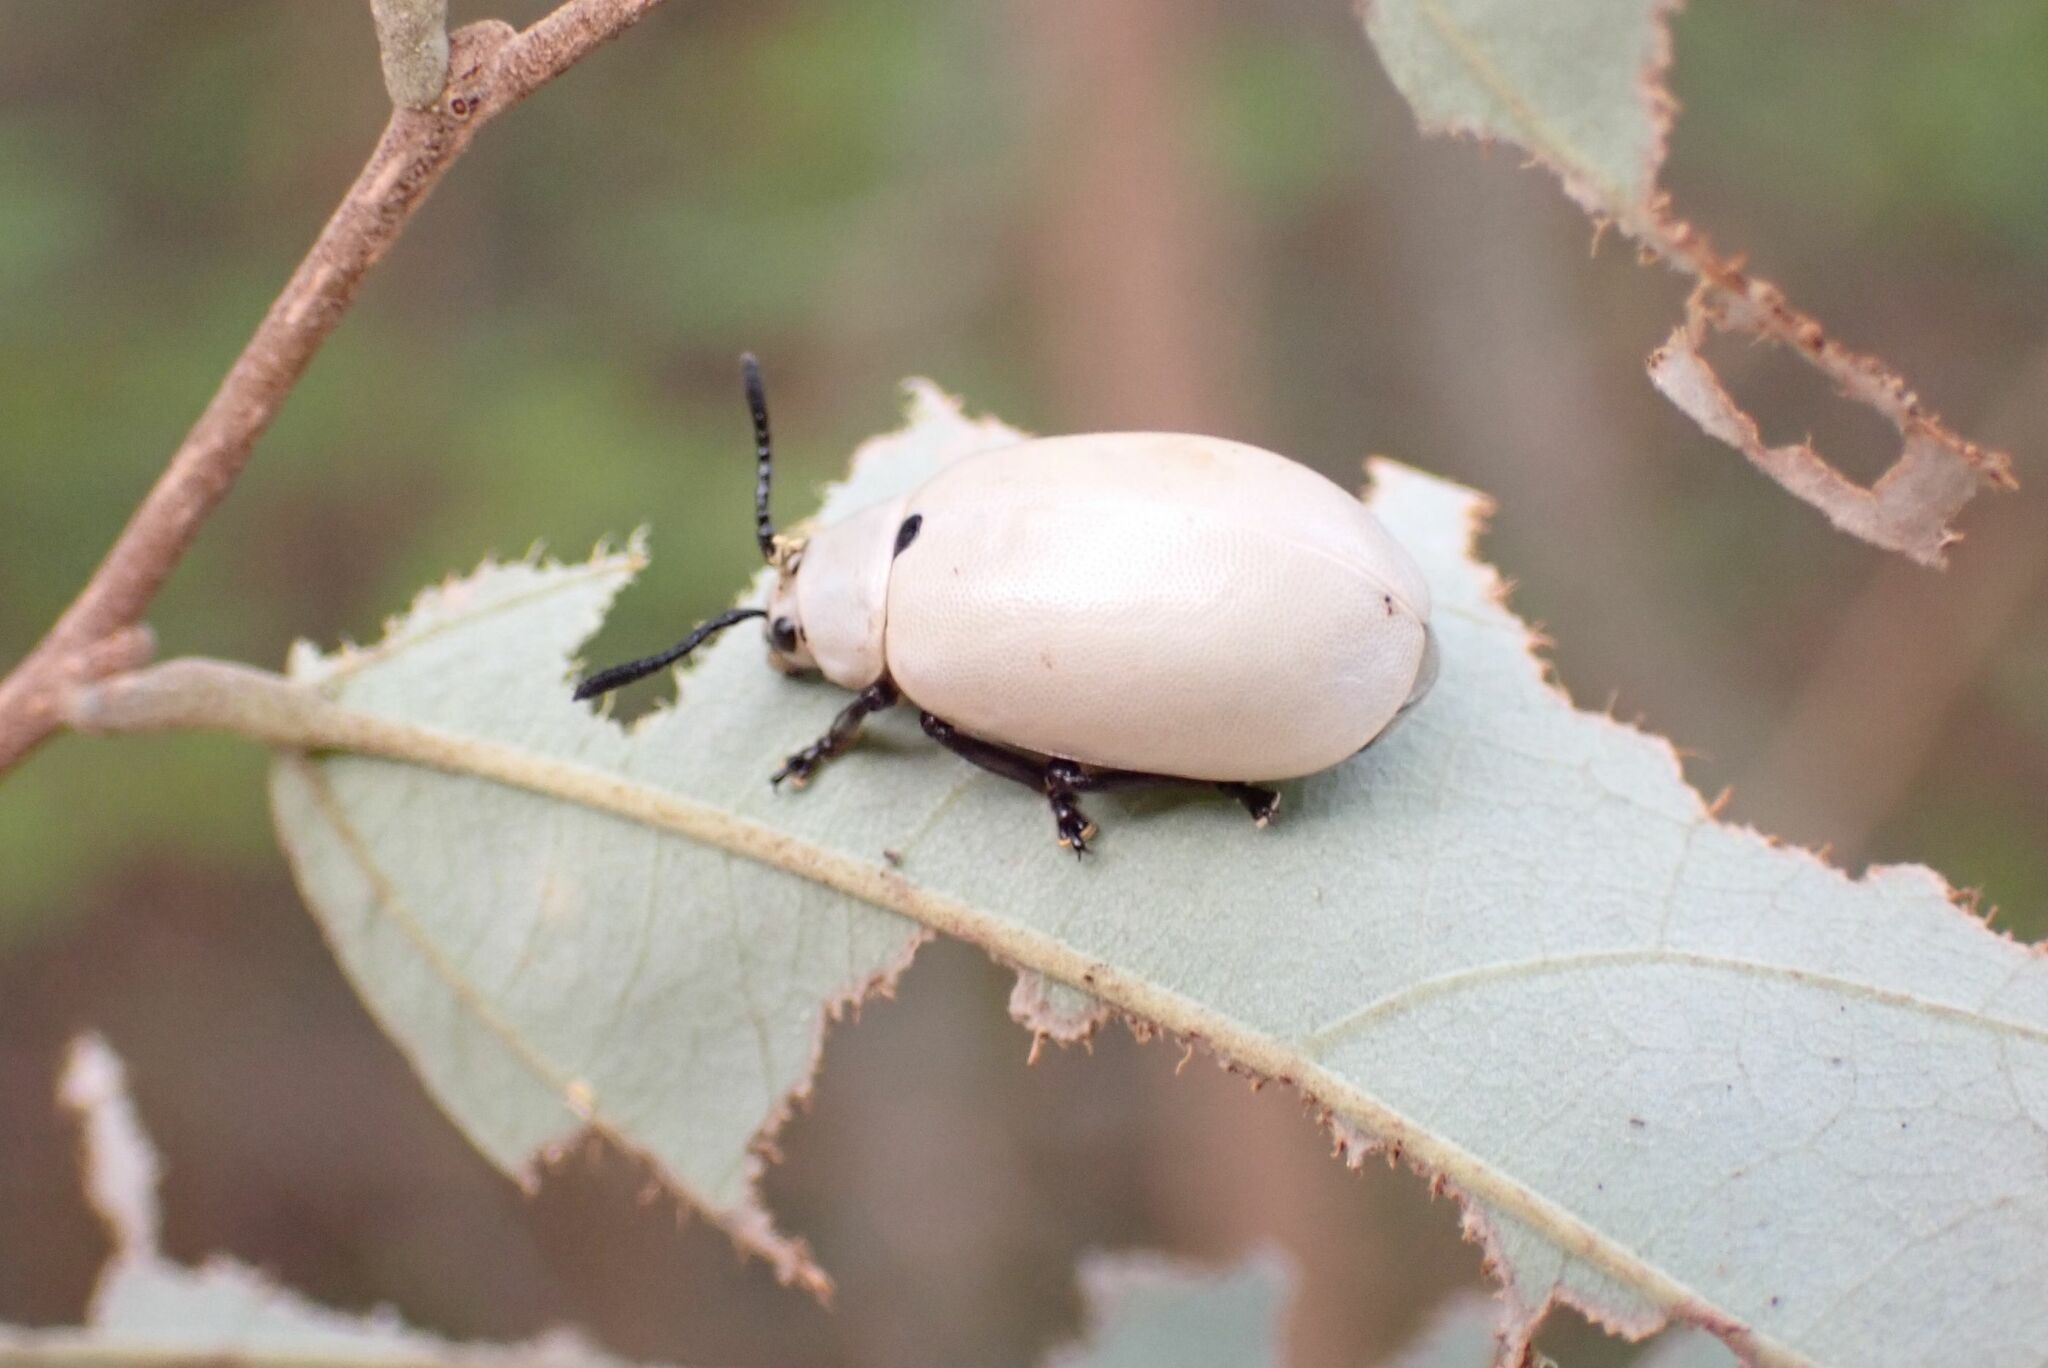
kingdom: Animalia
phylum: Arthropoda
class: Insecta
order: Coleoptera
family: Chrysomelidae
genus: Cerochroa
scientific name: Cerochroa
